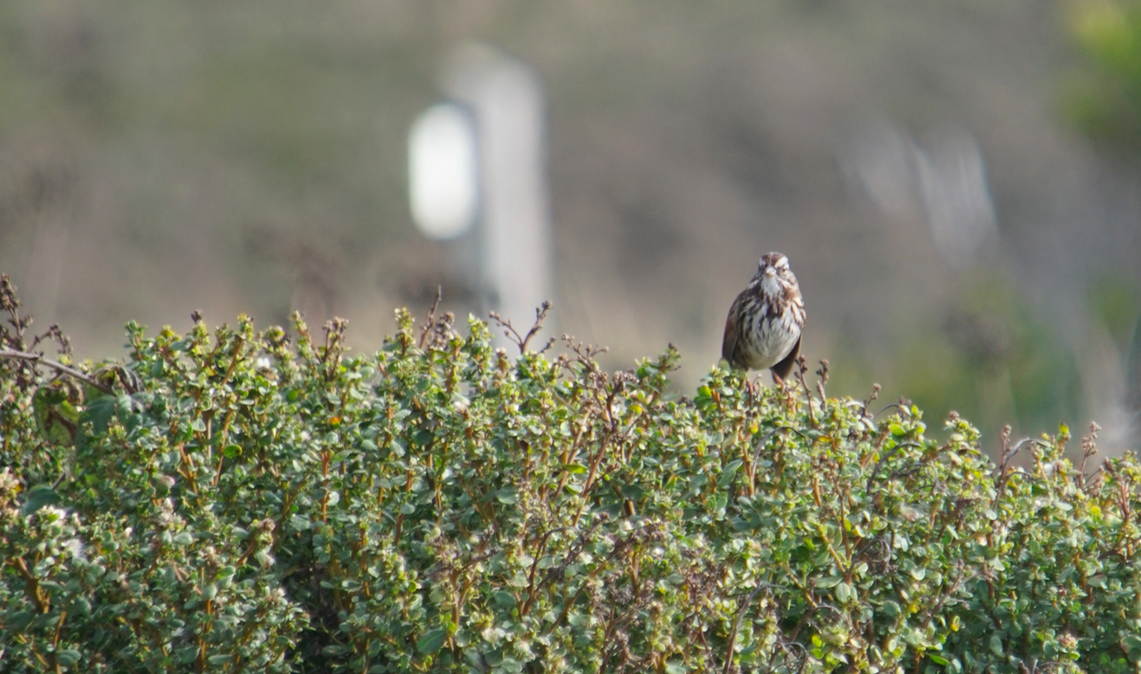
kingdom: Animalia
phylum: Chordata
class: Aves
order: Passeriformes
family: Passerellidae
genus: Melospiza
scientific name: Melospiza melodia
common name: Song sparrow
